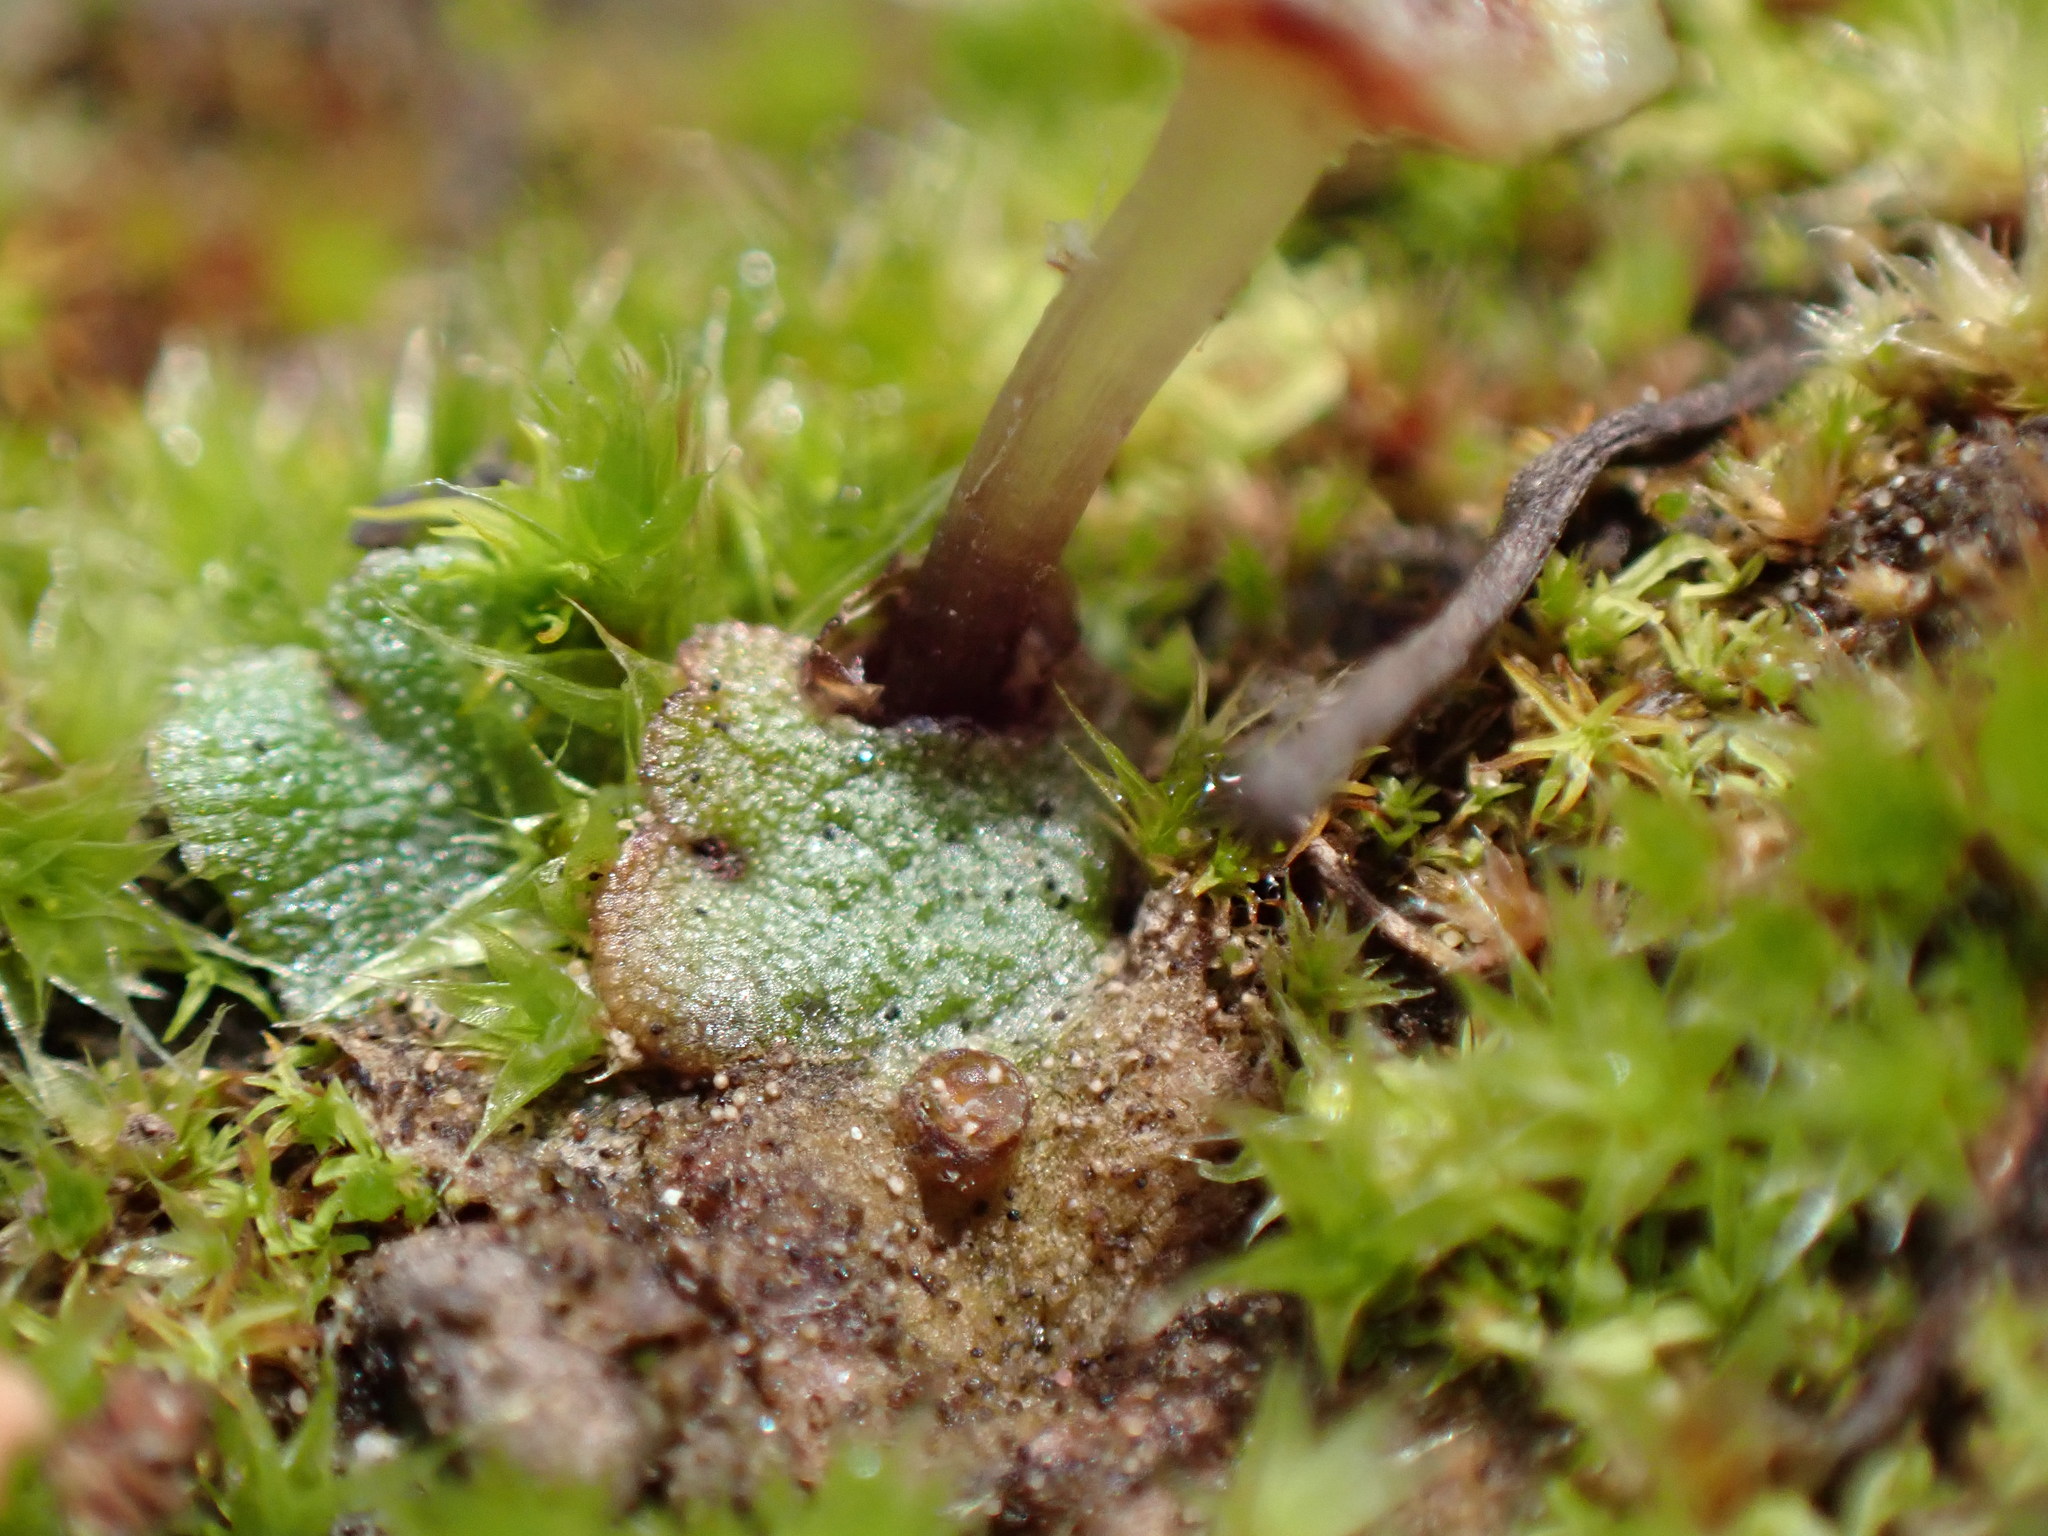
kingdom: Plantae
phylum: Marchantiophyta
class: Marchantiopsida
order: Marchantiales
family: Marchantiaceae
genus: Marchantia
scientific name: Marchantia quadrata
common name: Narrow mushroom-headed liverwort
